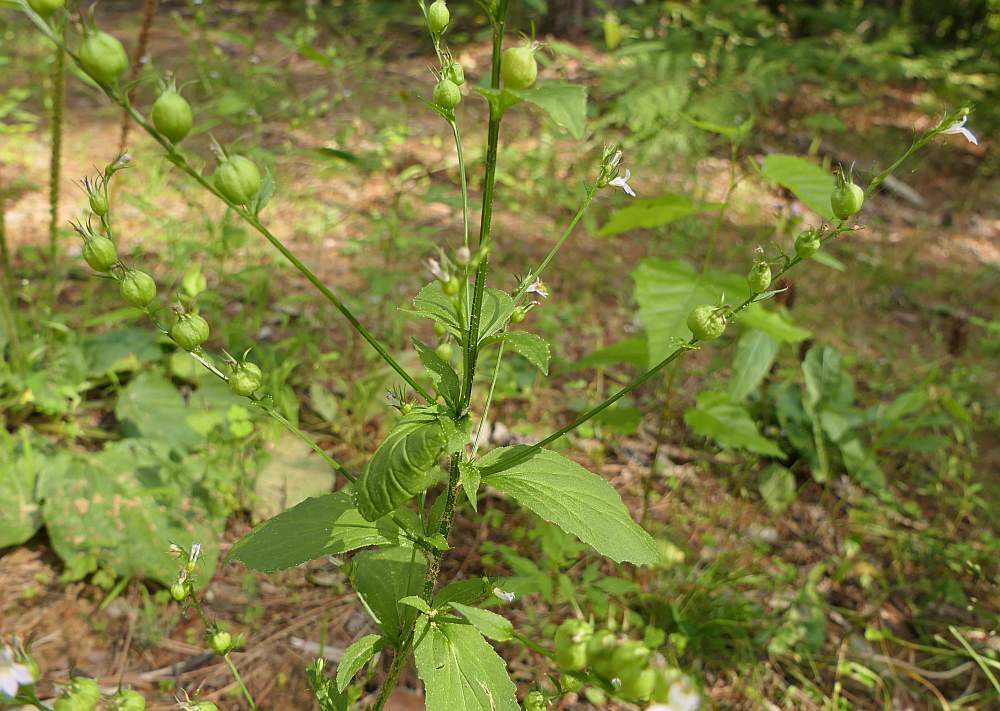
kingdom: Plantae
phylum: Tracheophyta
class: Magnoliopsida
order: Asterales
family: Campanulaceae
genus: Lobelia
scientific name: Lobelia inflata
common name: Indian tobacco
